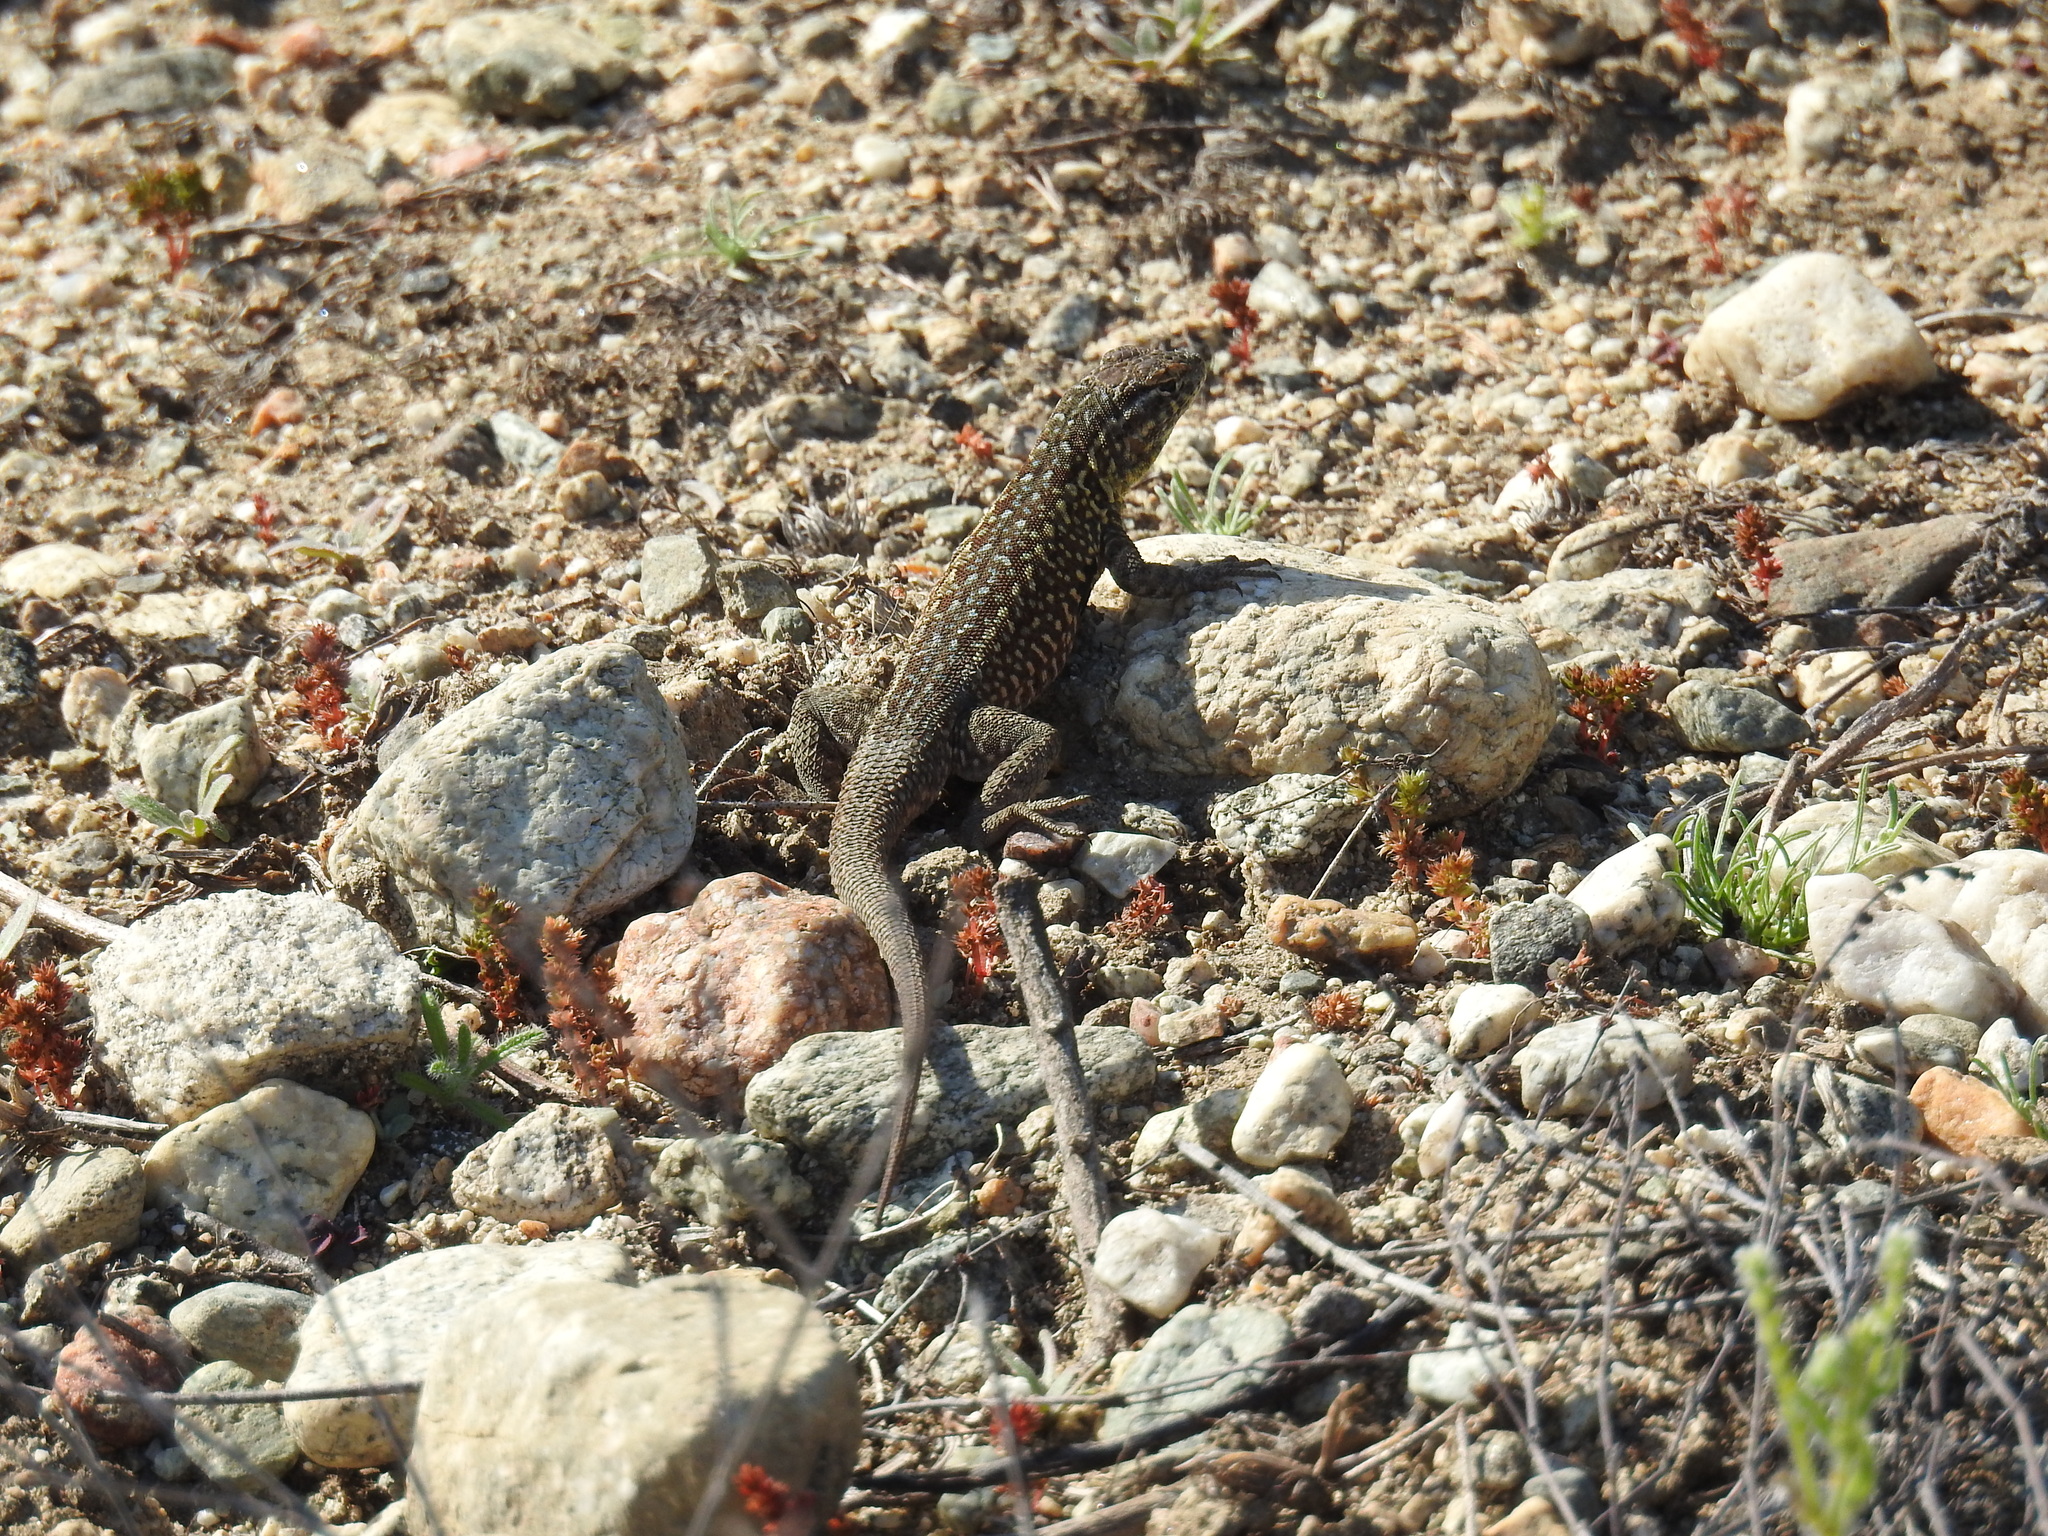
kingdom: Animalia
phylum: Chordata
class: Squamata
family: Phrynosomatidae
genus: Uta
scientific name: Uta stansburiana
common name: Side-blotched lizard
